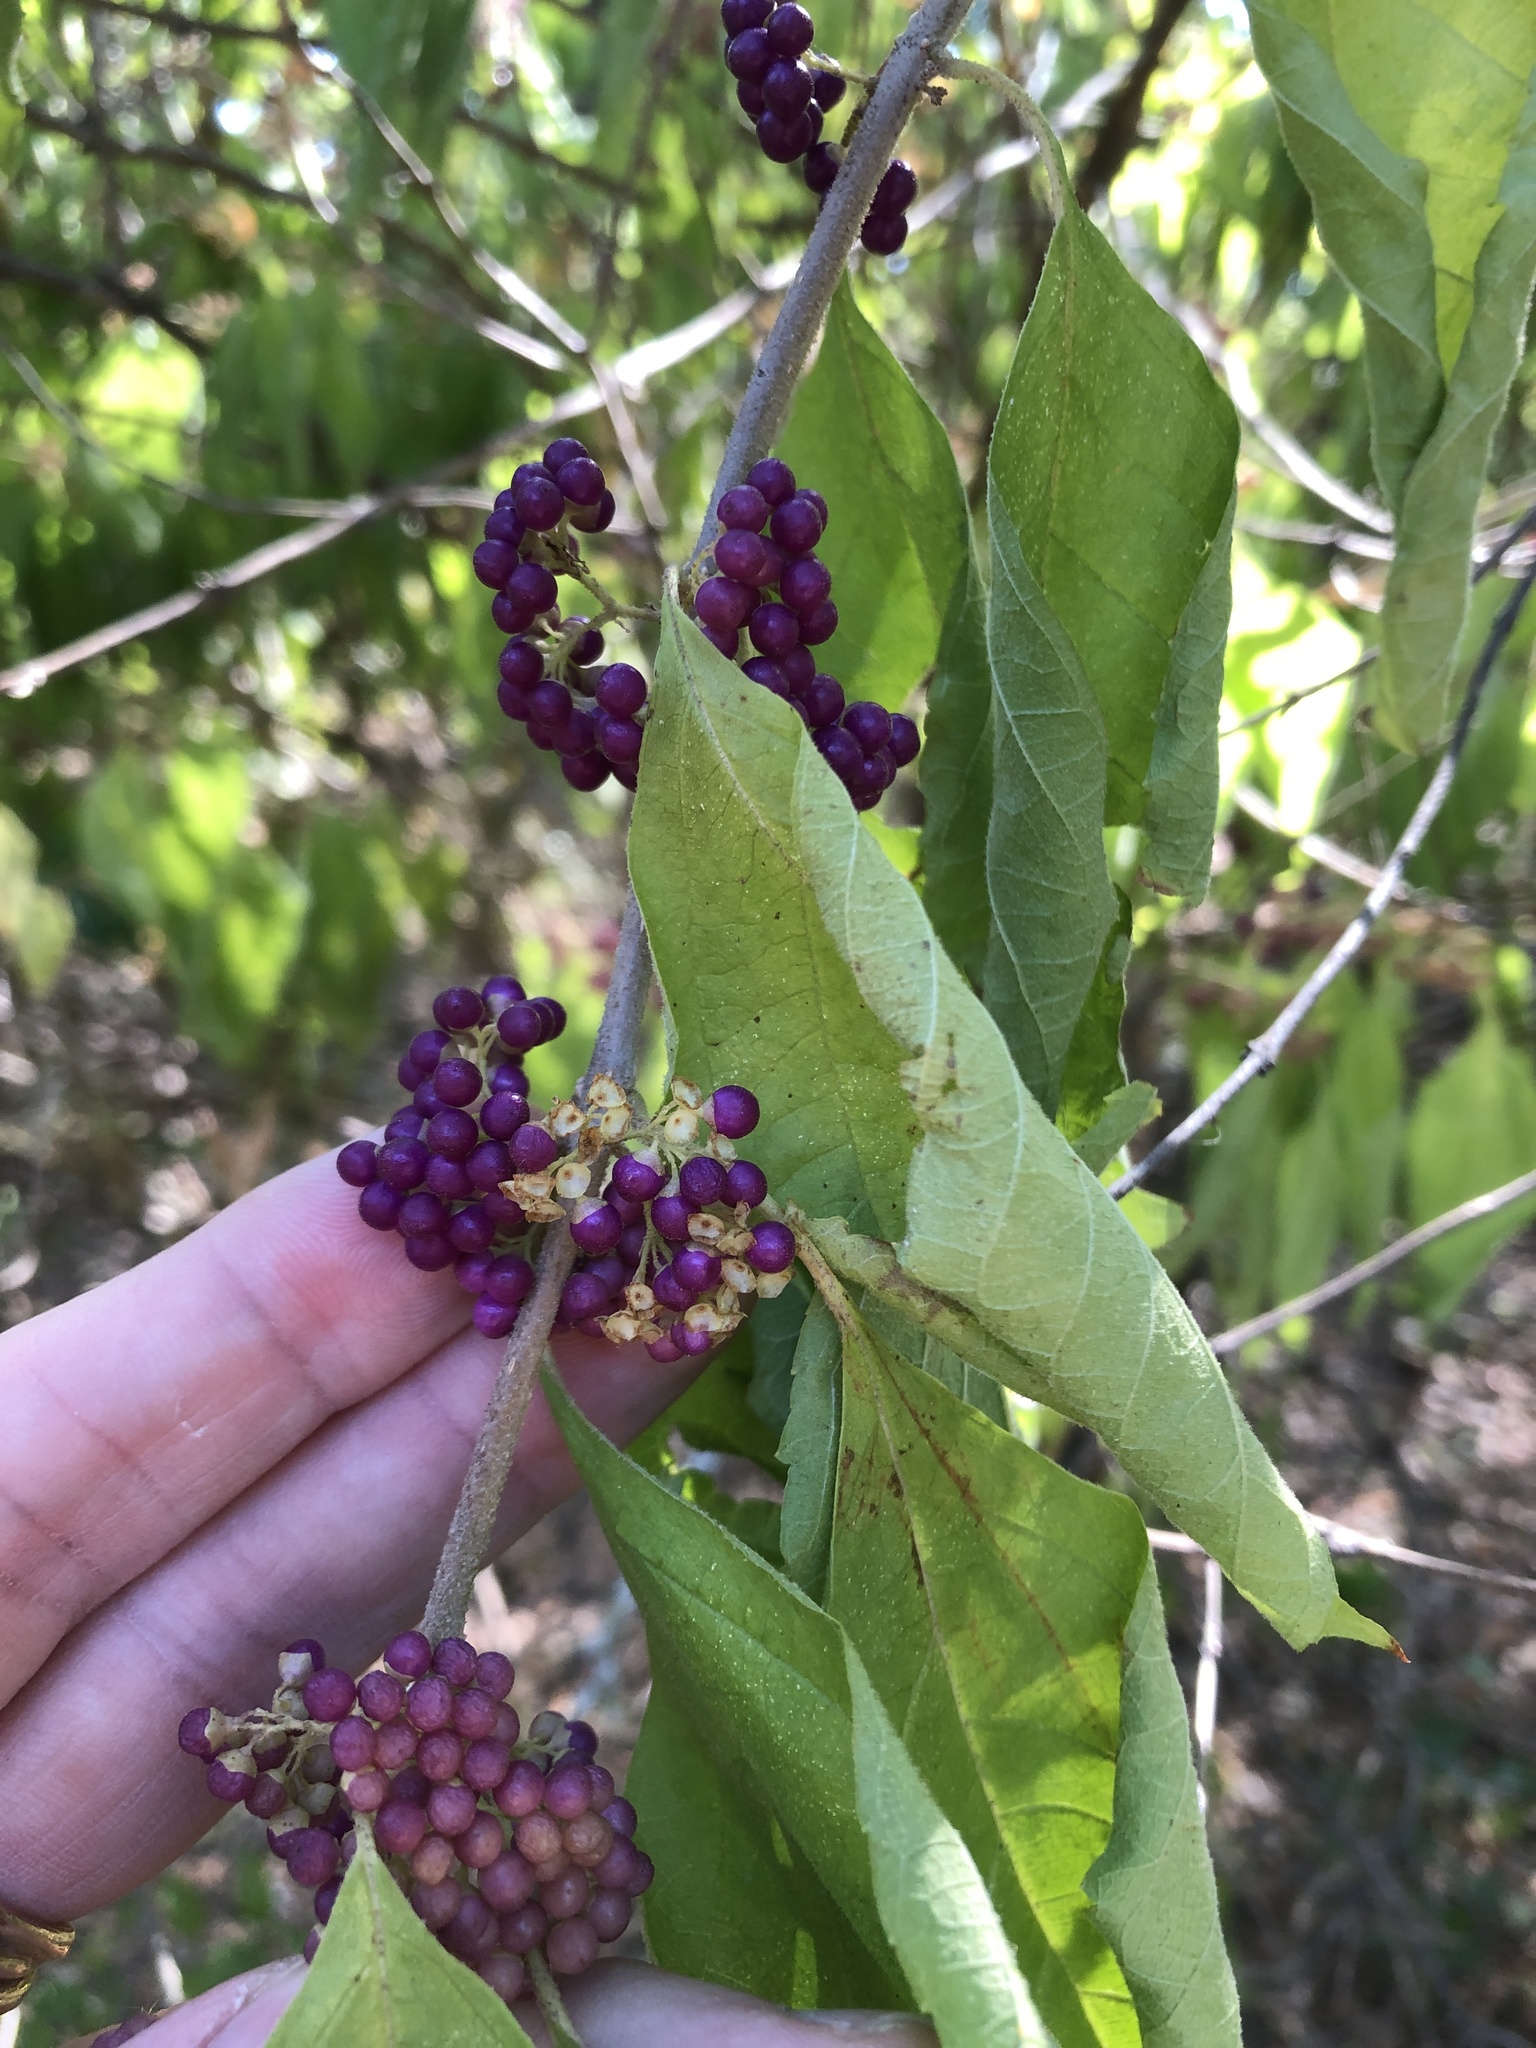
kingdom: Plantae
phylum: Tracheophyta
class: Magnoliopsida
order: Lamiales
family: Lamiaceae
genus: Callicarpa
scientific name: Callicarpa americana
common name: American beautyberry
